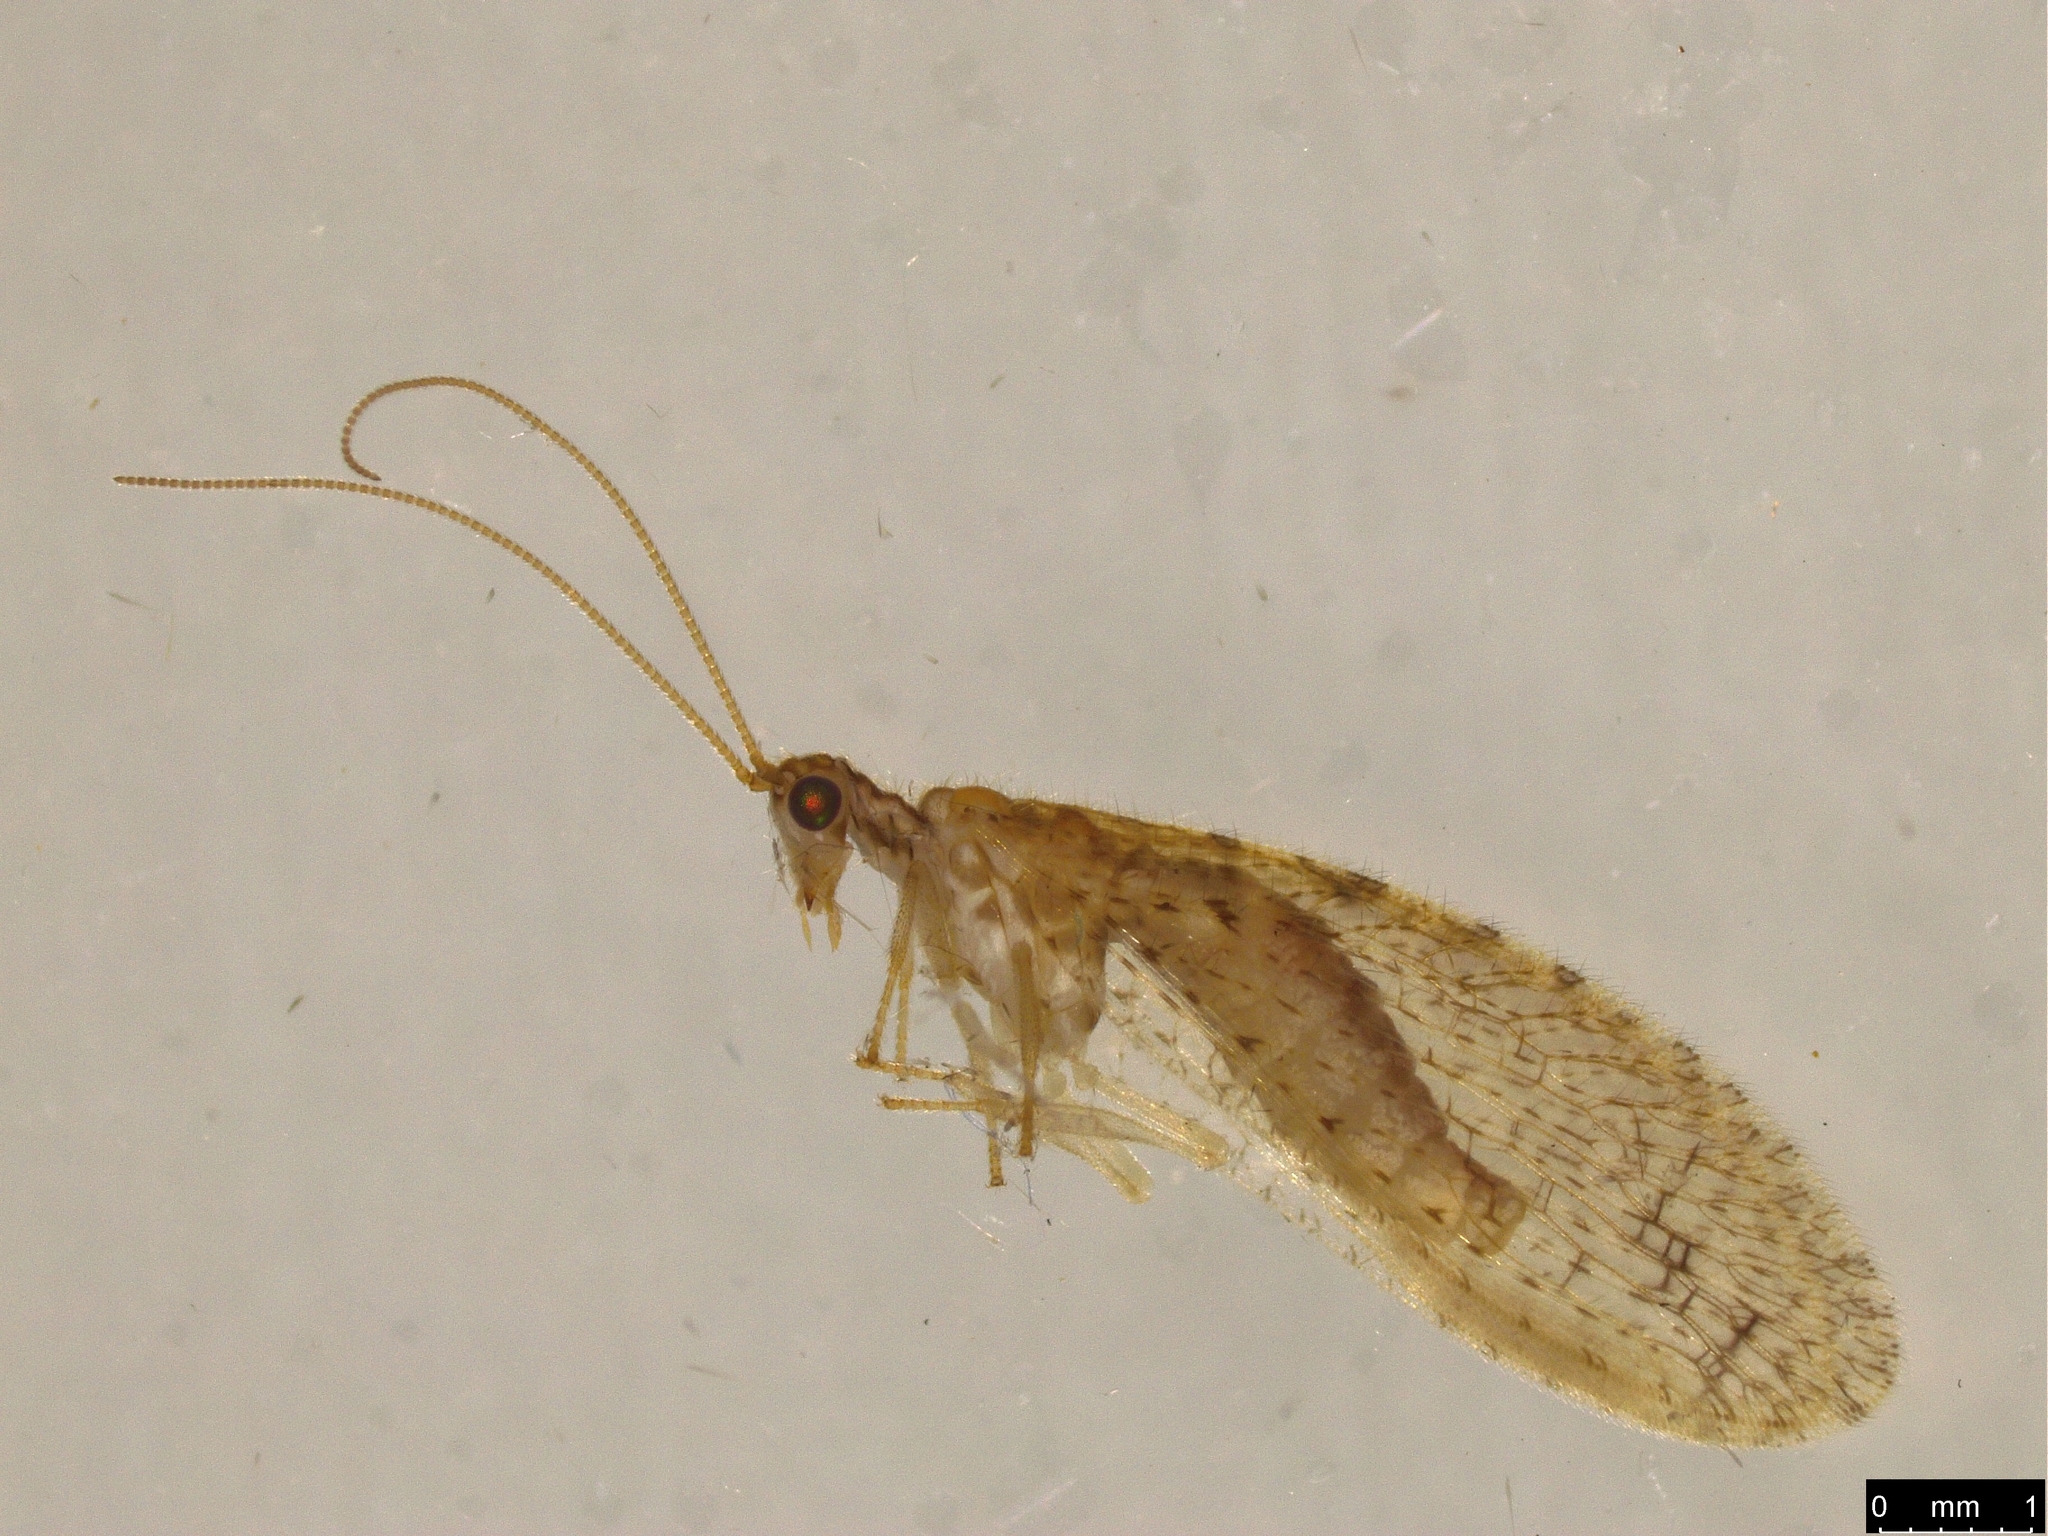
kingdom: Animalia
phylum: Arthropoda
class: Insecta
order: Neuroptera
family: Hemerobiidae
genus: Micromus
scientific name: Micromus tasmaniae
